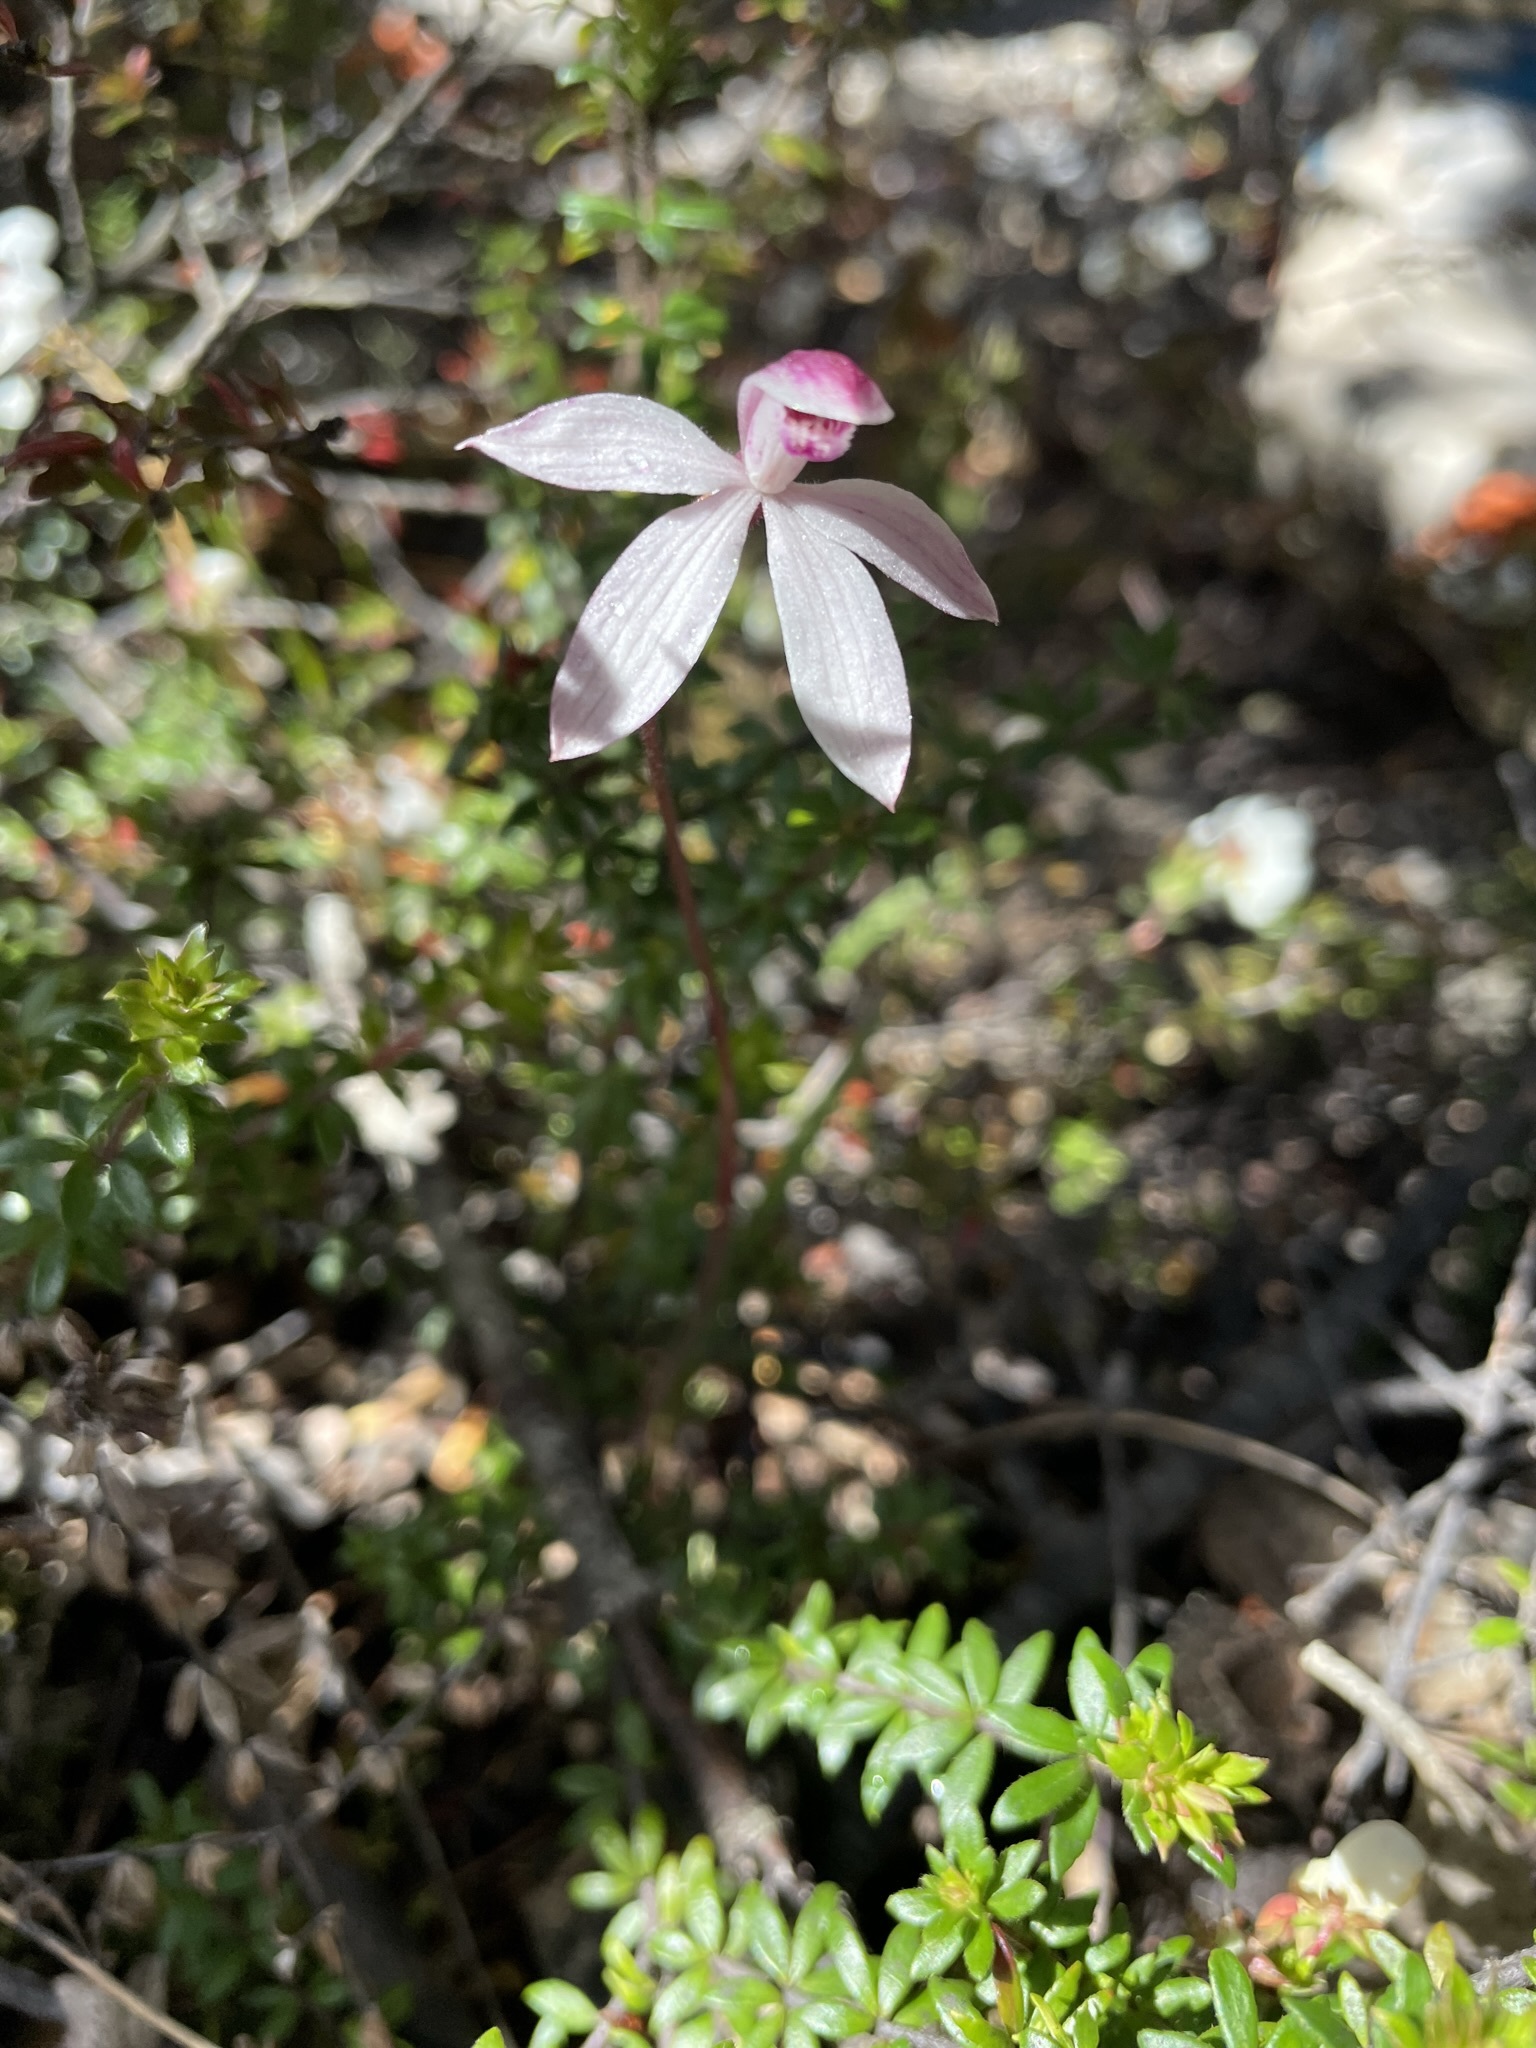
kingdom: Plantae
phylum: Tracheophyta
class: Liliopsida
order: Asparagales
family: Orchidaceae
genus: Caladenia
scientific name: Caladenia alpina
